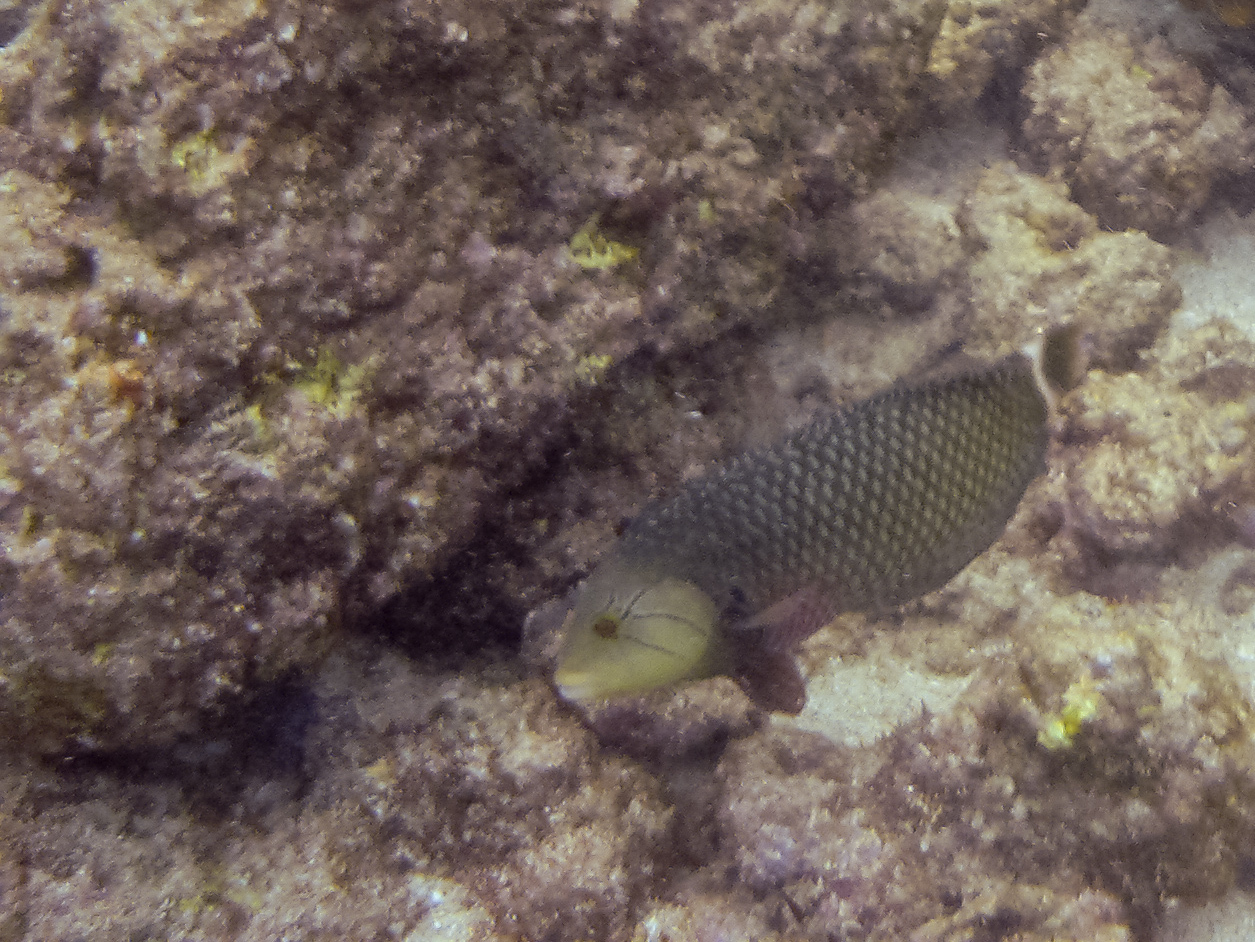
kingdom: Animalia
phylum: Chordata
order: Perciformes
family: Labridae
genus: Novaculichthys
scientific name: Novaculichthys taeniourus
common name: Rockmover wrasse
